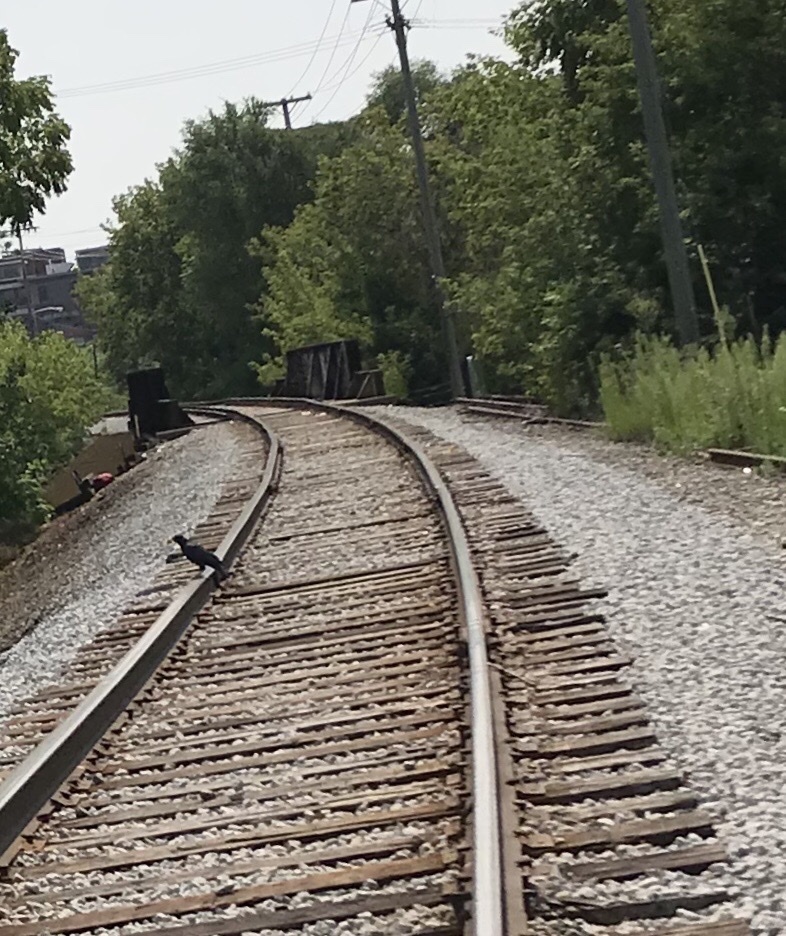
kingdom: Animalia
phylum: Chordata
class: Aves
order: Passeriformes
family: Corvidae
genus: Corvus
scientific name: Corvus brachyrhynchos
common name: American crow
